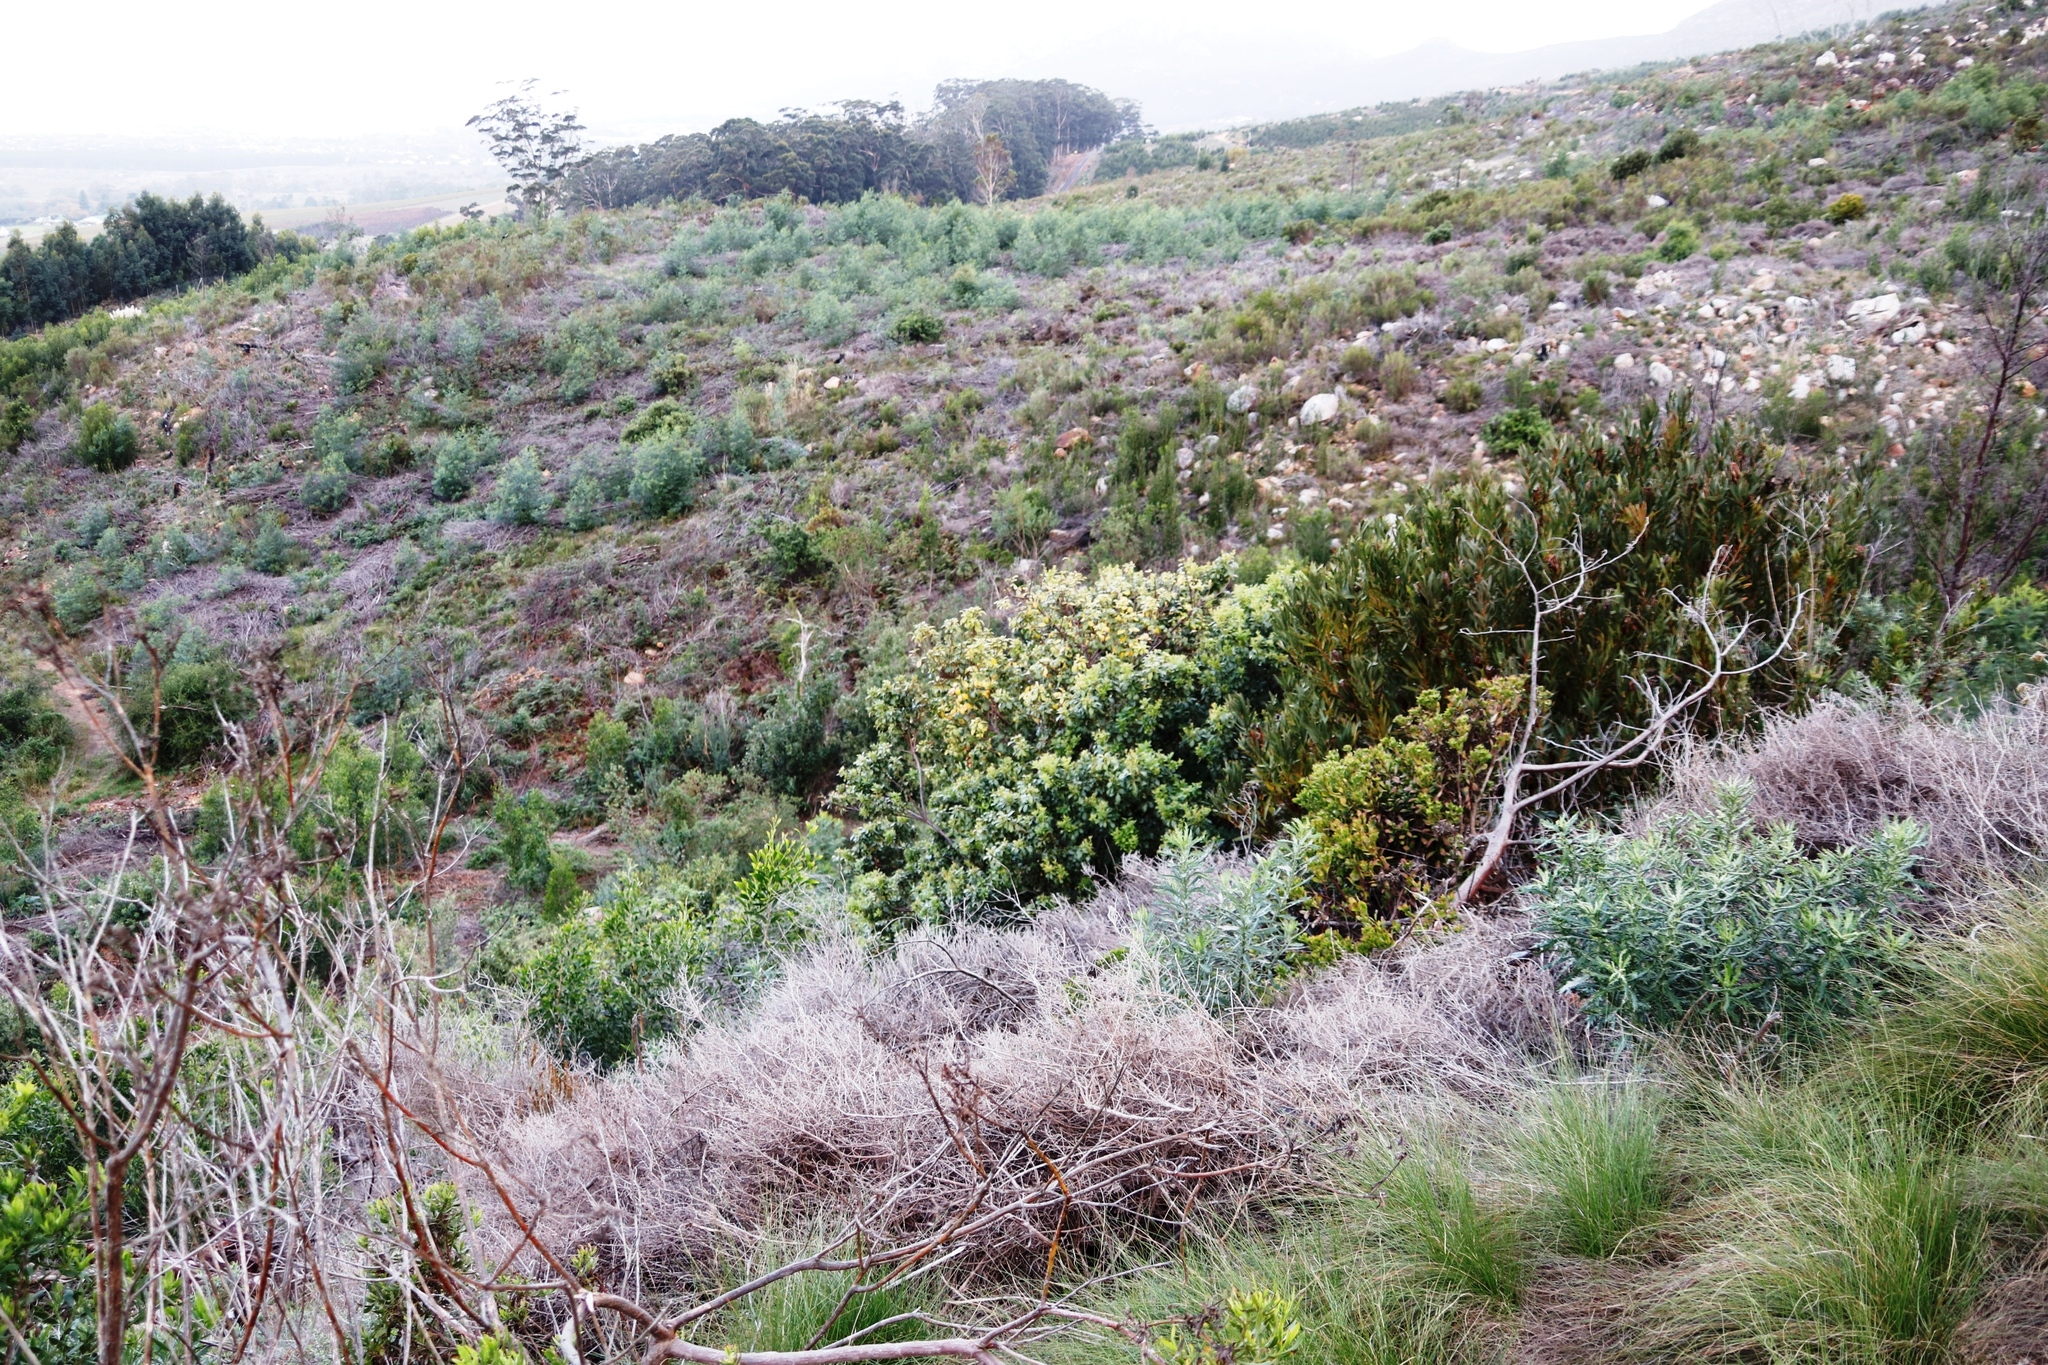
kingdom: Plantae
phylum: Tracheophyta
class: Magnoliopsida
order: Sapindales
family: Anacardiaceae
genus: Searsia
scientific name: Searsia tomentosa
